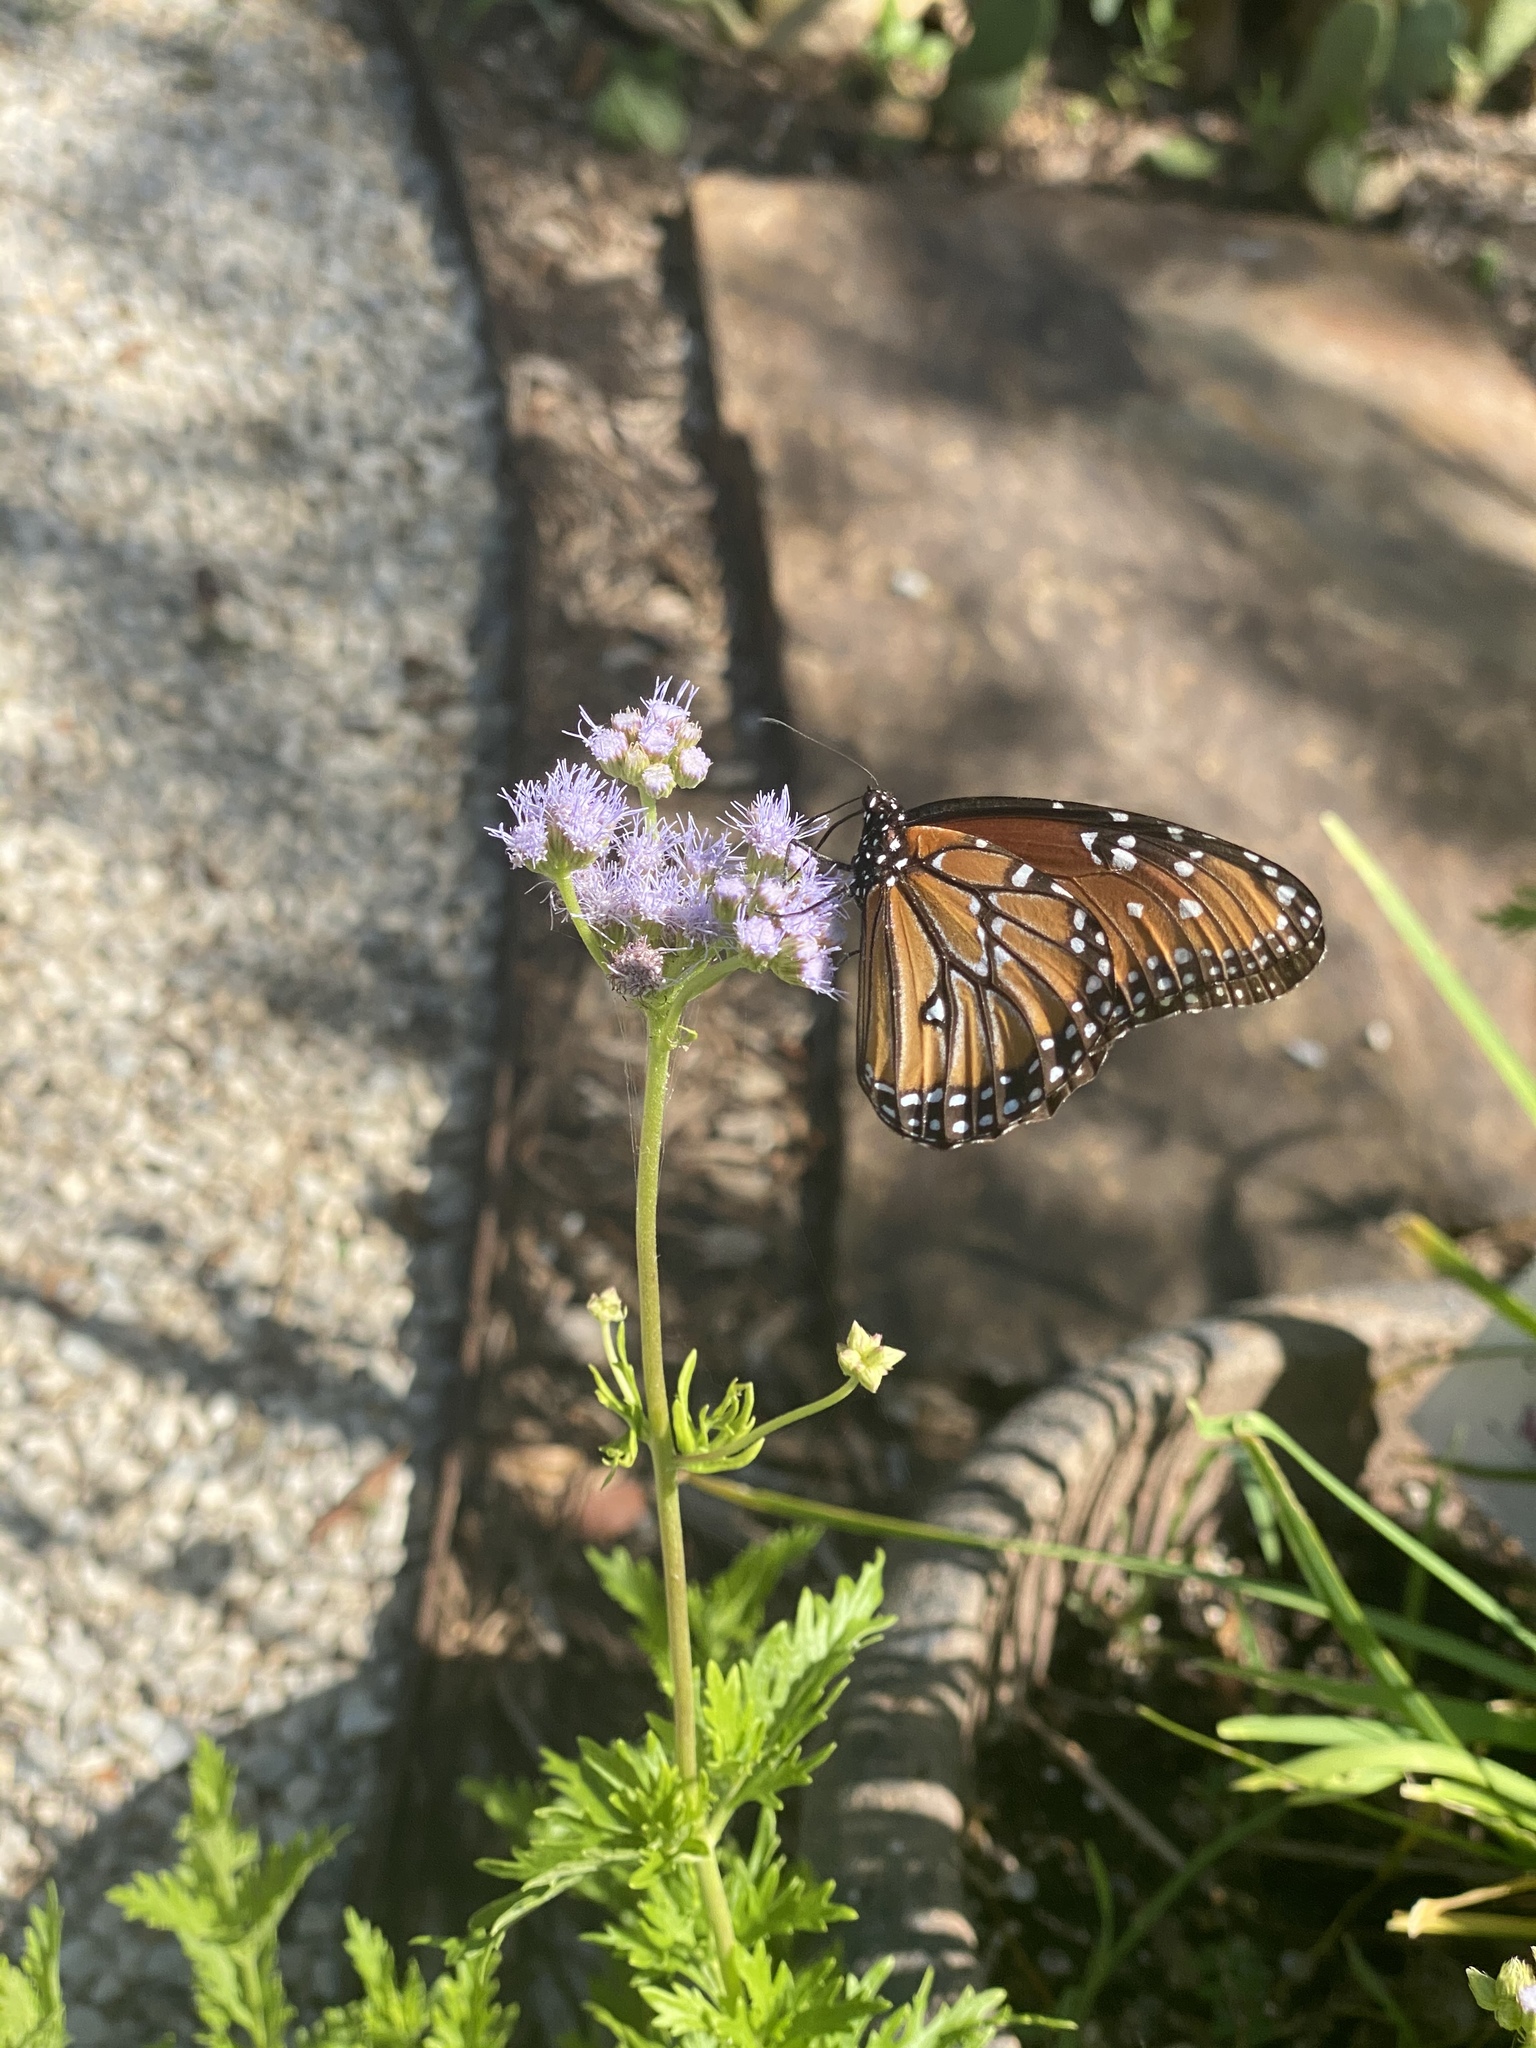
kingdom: Animalia
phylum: Arthropoda
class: Insecta
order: Lepidoptera
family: Nymphalidae
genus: Danaus
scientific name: Danaus gilippus
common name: Queen
